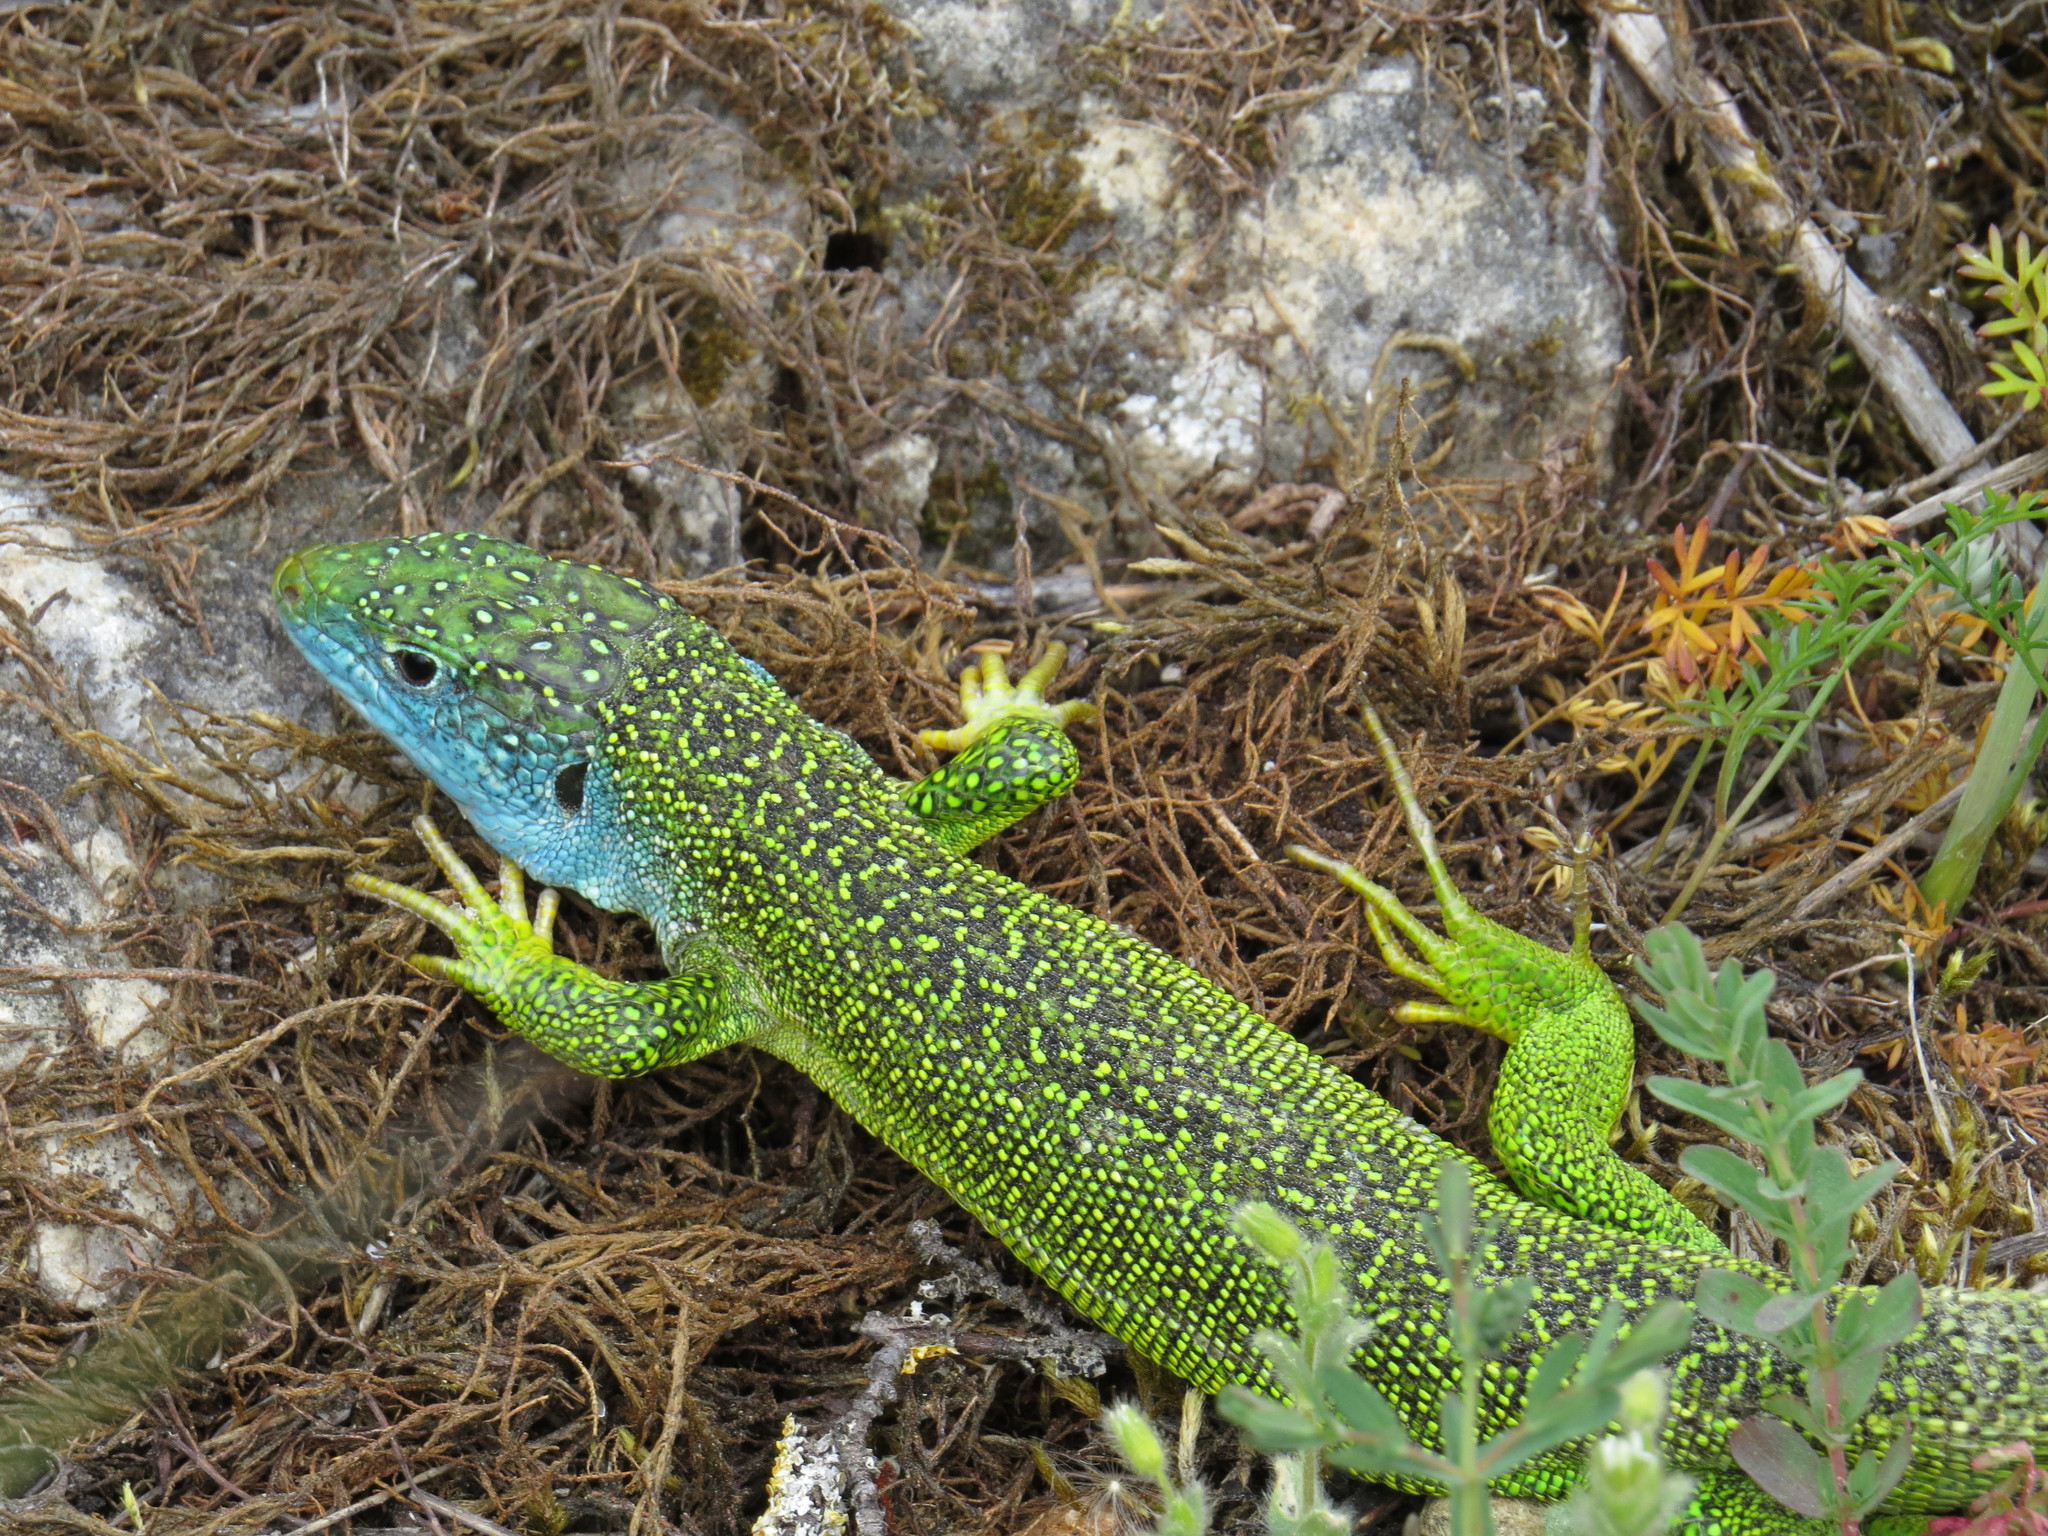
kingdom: Animalia
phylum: Chordata
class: Squamata
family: Lacertidae
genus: Lacerta
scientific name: Lacerta bilineata
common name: Western green lizard
